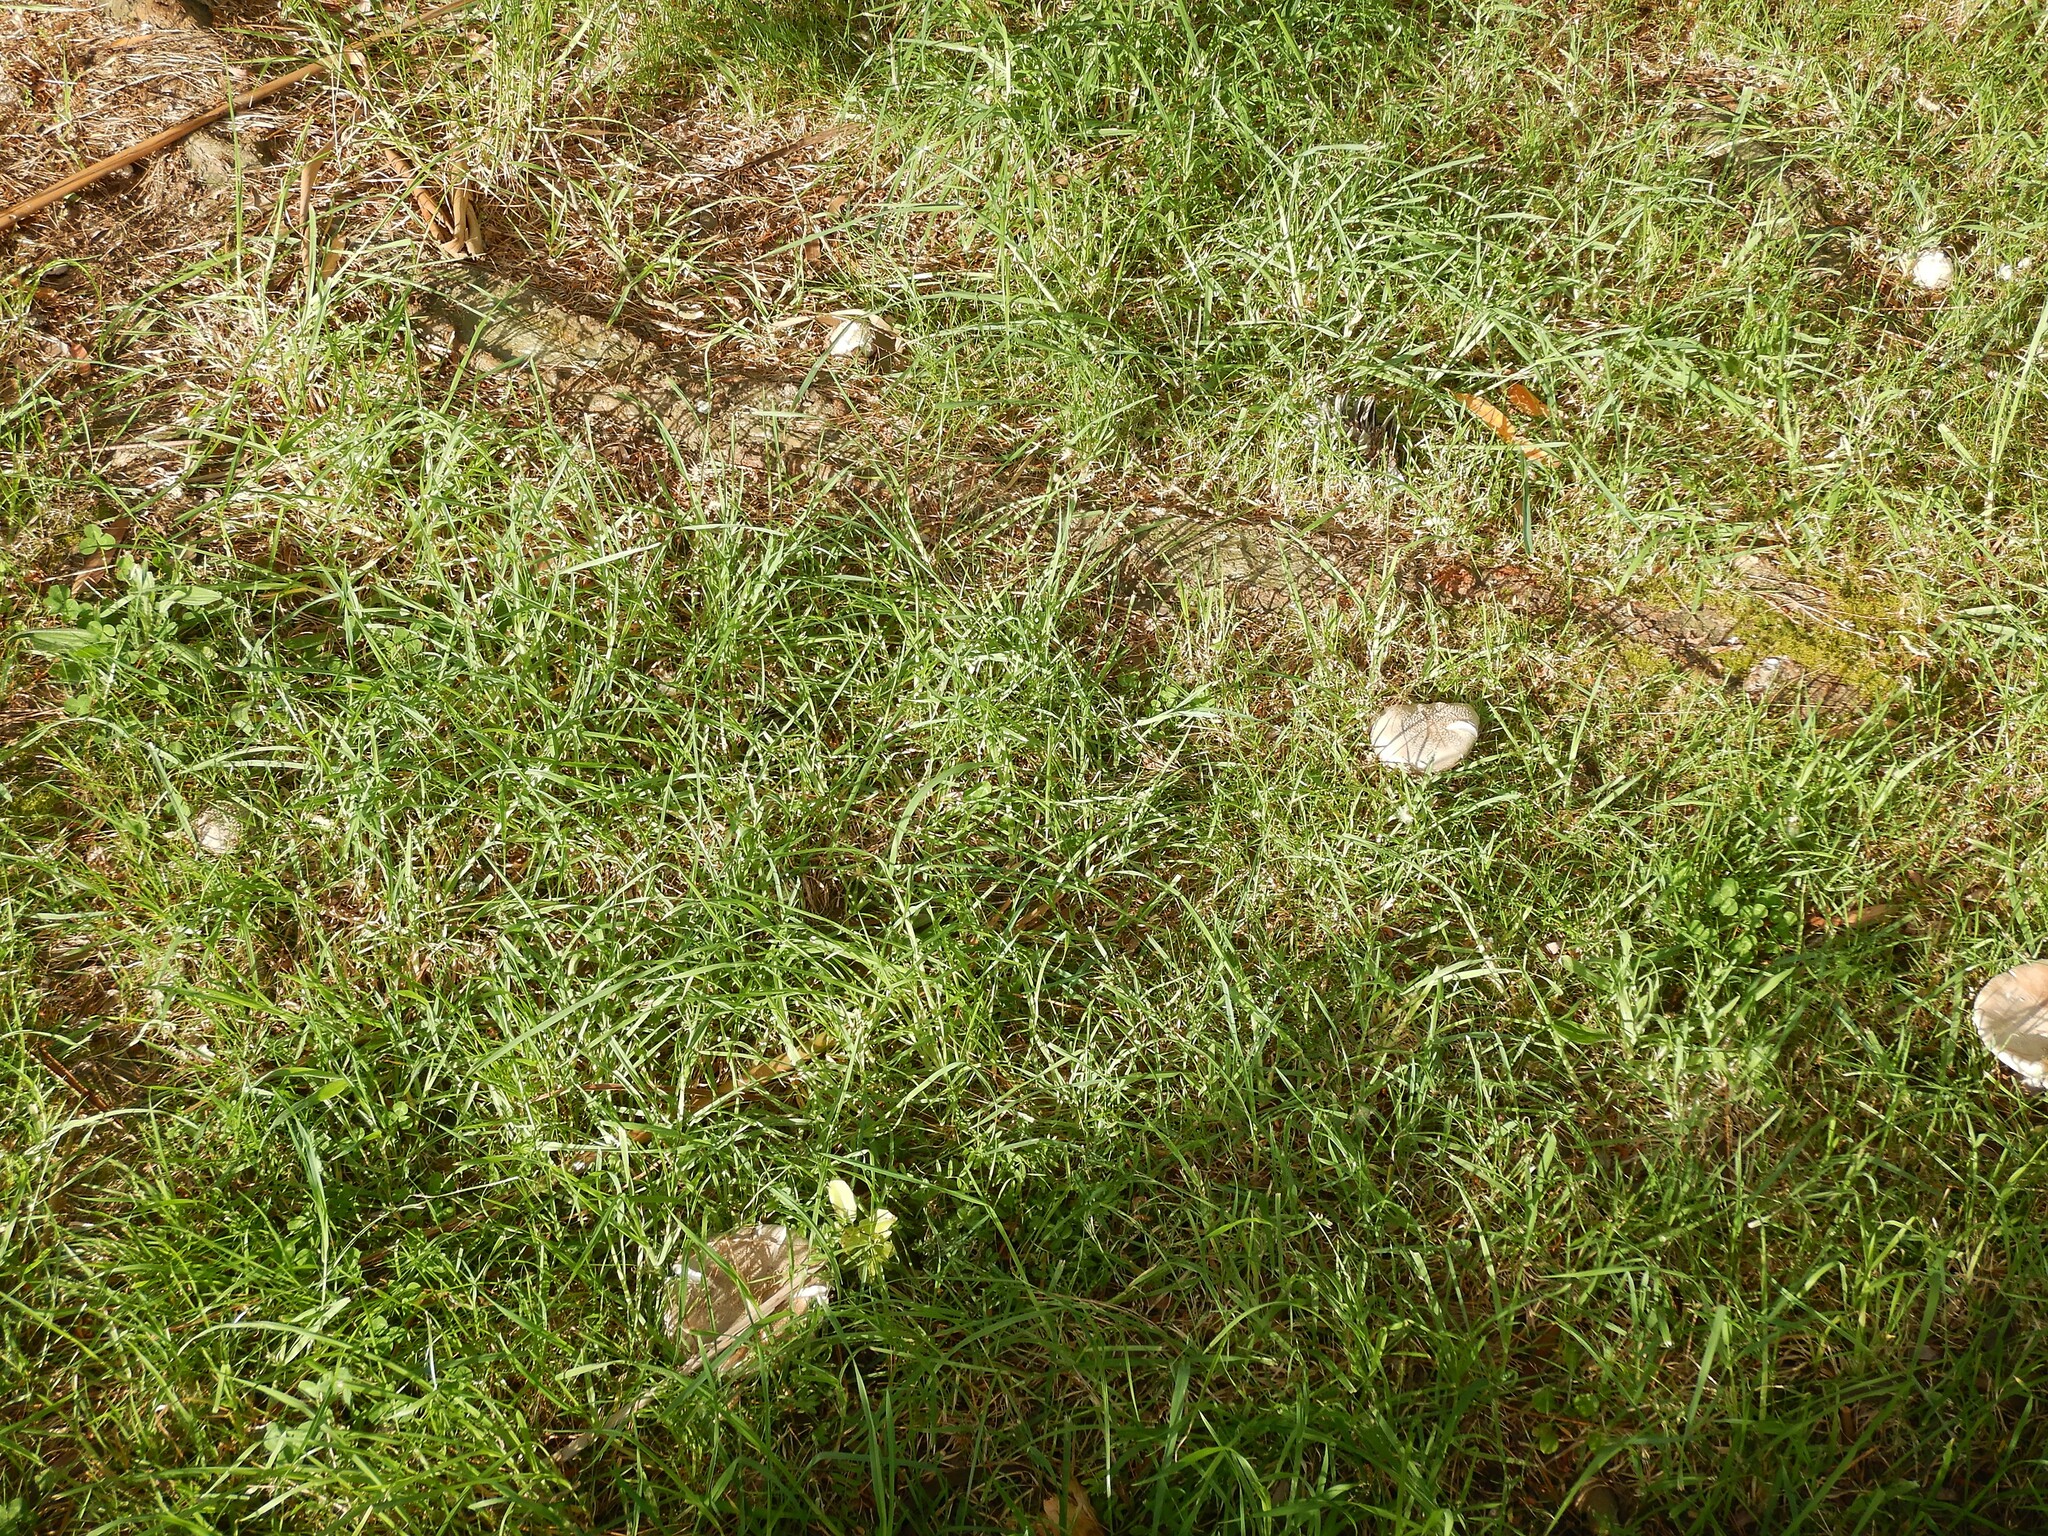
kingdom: Fungi
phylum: Basidiomycota
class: Agaricomycetes
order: Agaricales
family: Amanitaceae
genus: Amanita
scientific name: Amanita excelsa
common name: European false blusher
